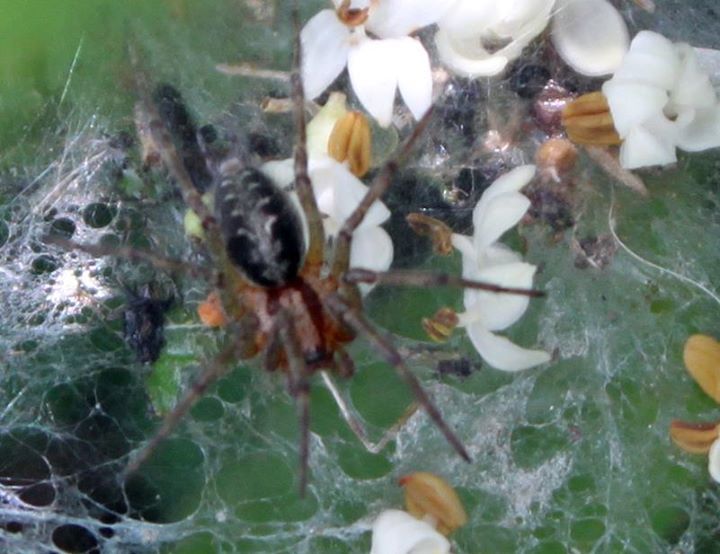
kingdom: Animalia
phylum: Arthropoda
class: Arachnida
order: Araneae
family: Agelenidae
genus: Agelena
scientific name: Agelena labyrinthica
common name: Labyrinth spider
